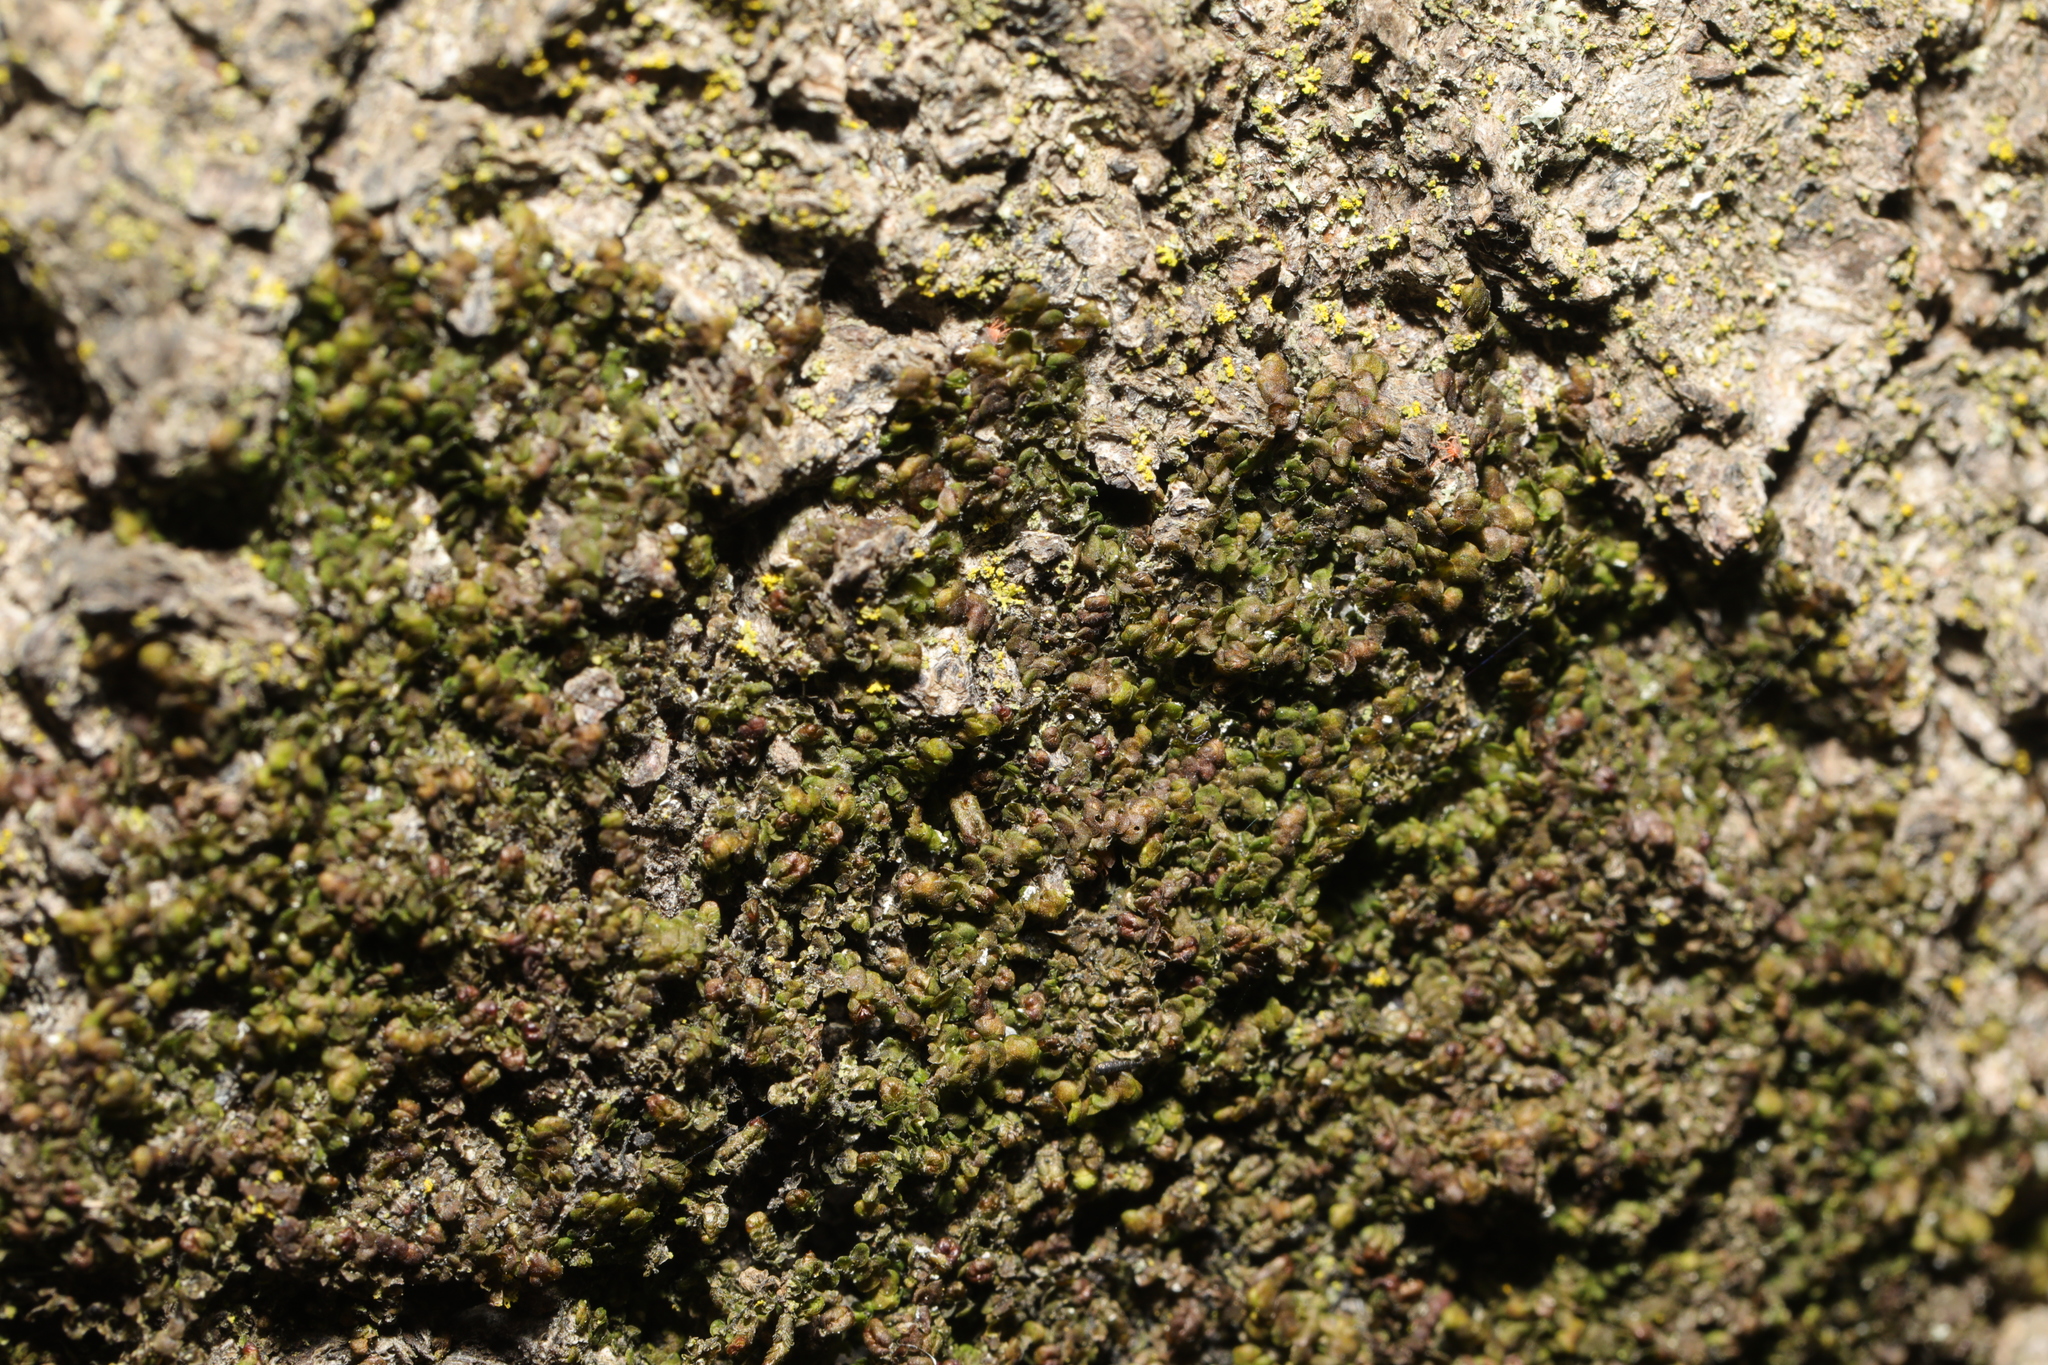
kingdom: Plantae
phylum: Marchantiophyta
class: Jungermanniopsida
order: Porellales
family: Frullaniaceae
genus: Frullania
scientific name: Frullania dilatata
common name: Dilated scalewort
